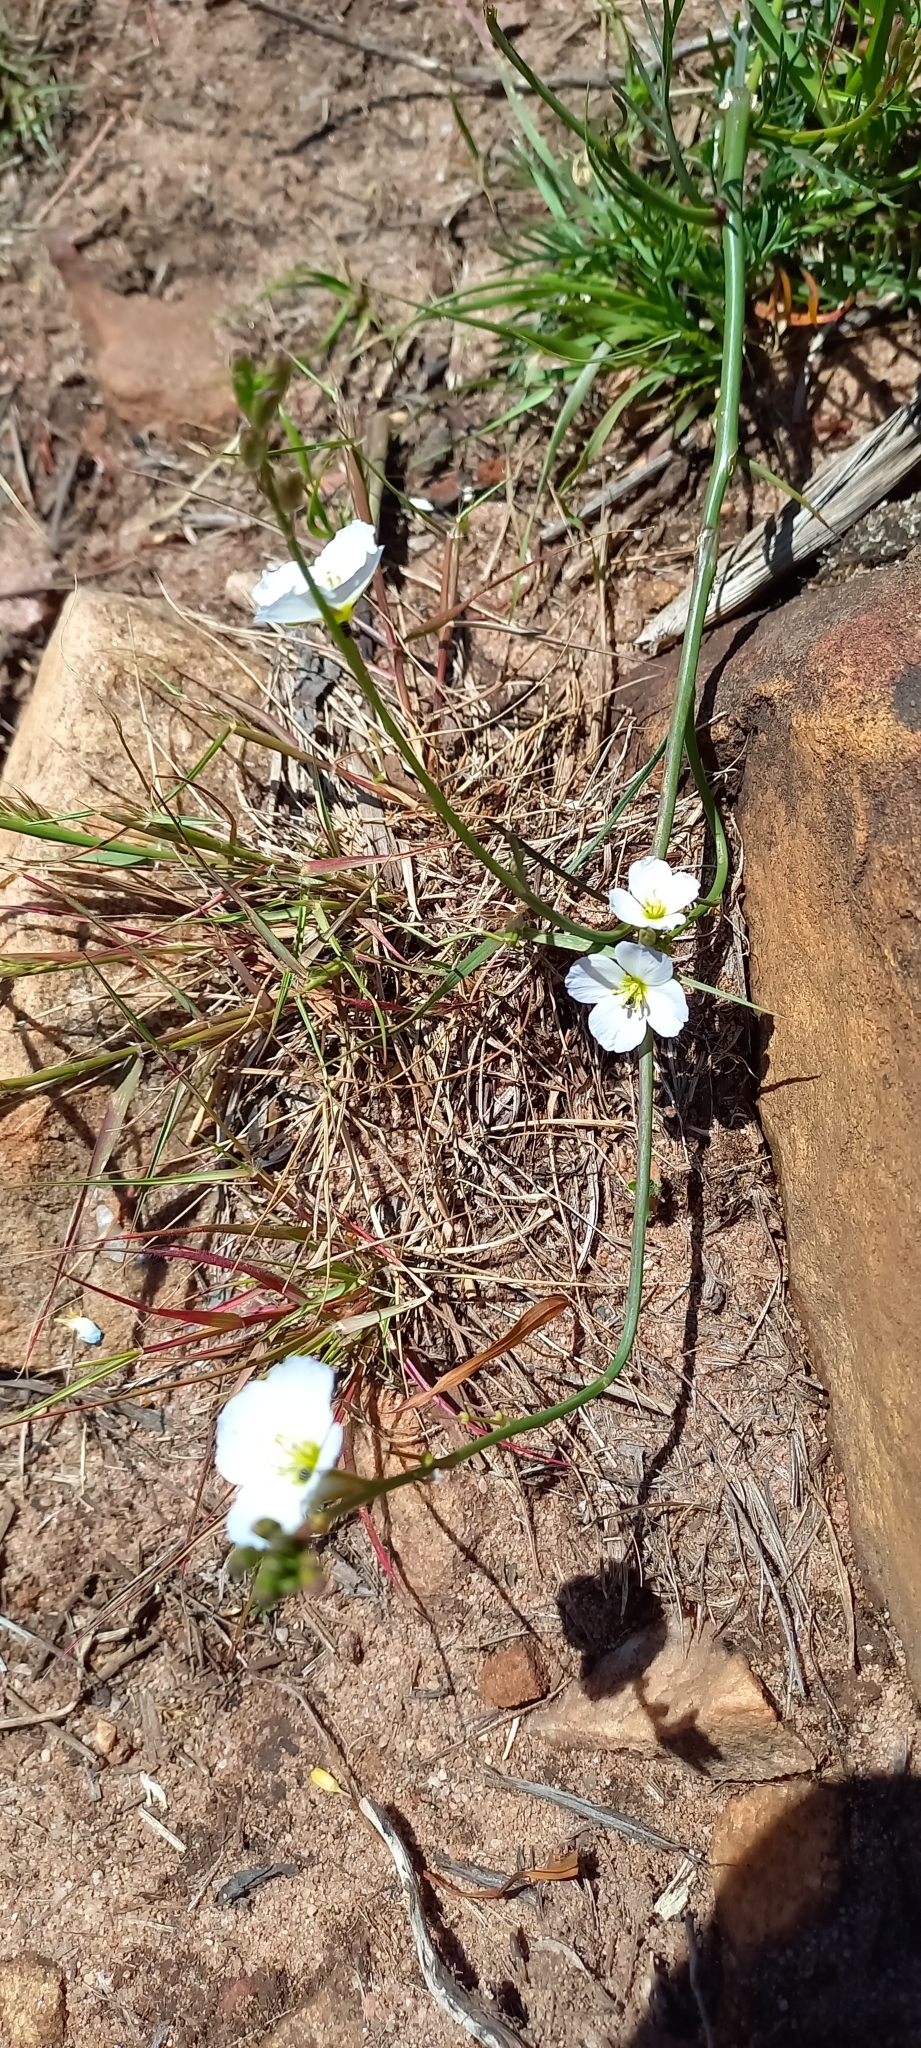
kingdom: Plantae
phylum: Tracheophyta
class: Magnoliopsida
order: Brassicales
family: Brassicaceae
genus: Heliophila
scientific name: Heliophila coronopifolia
